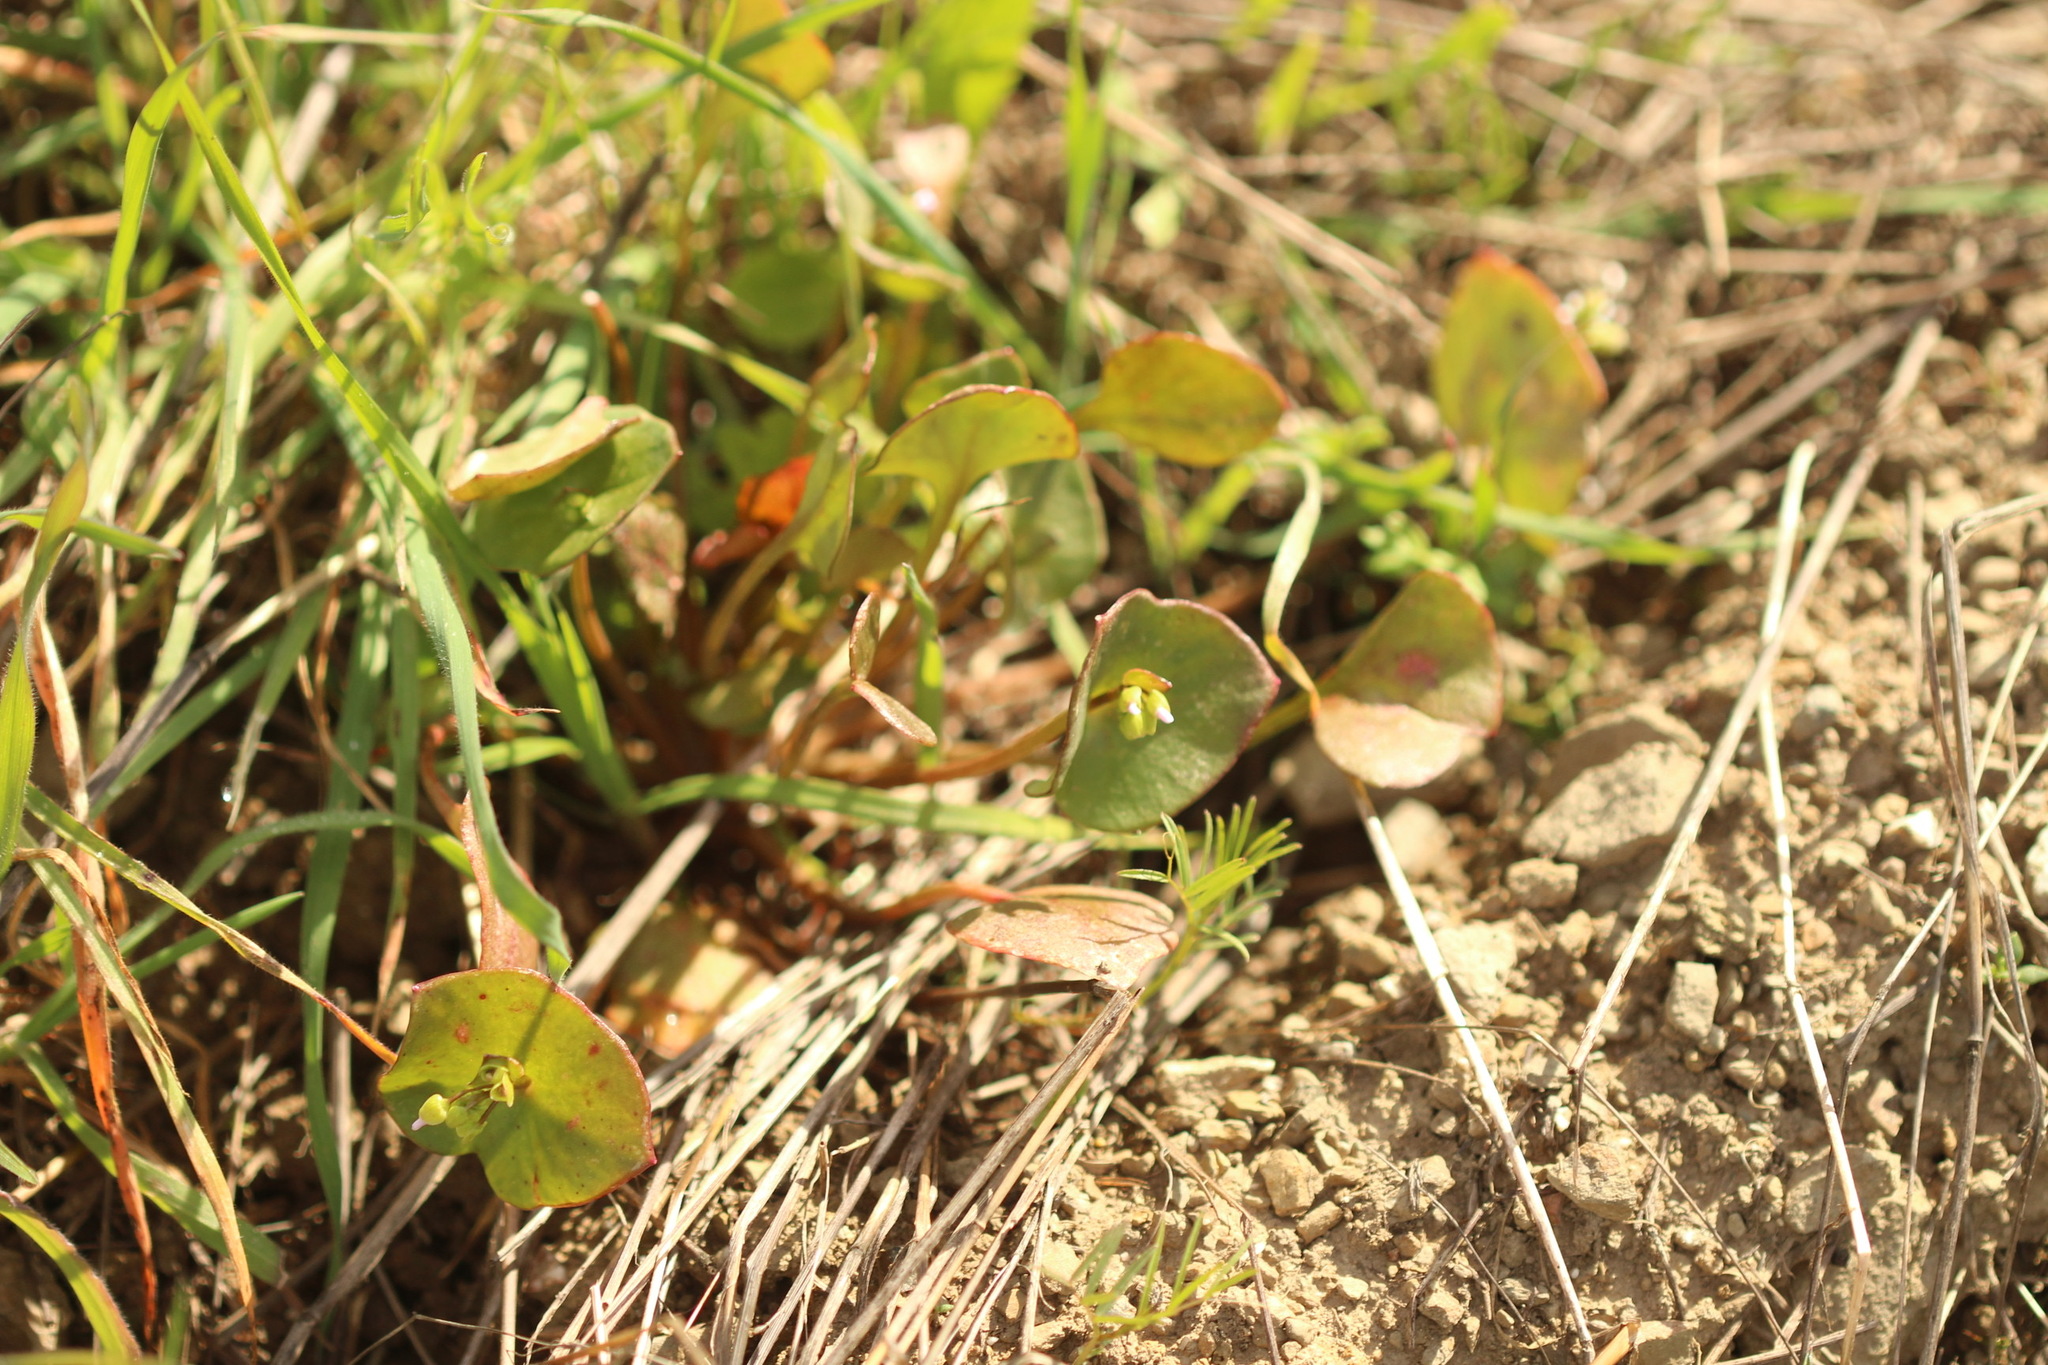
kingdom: Plantae
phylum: Tracheophyta
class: Magnoliopsida
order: Caryophyllales
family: Montiaceae
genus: Claytonia
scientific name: Claytonia perfoliata
